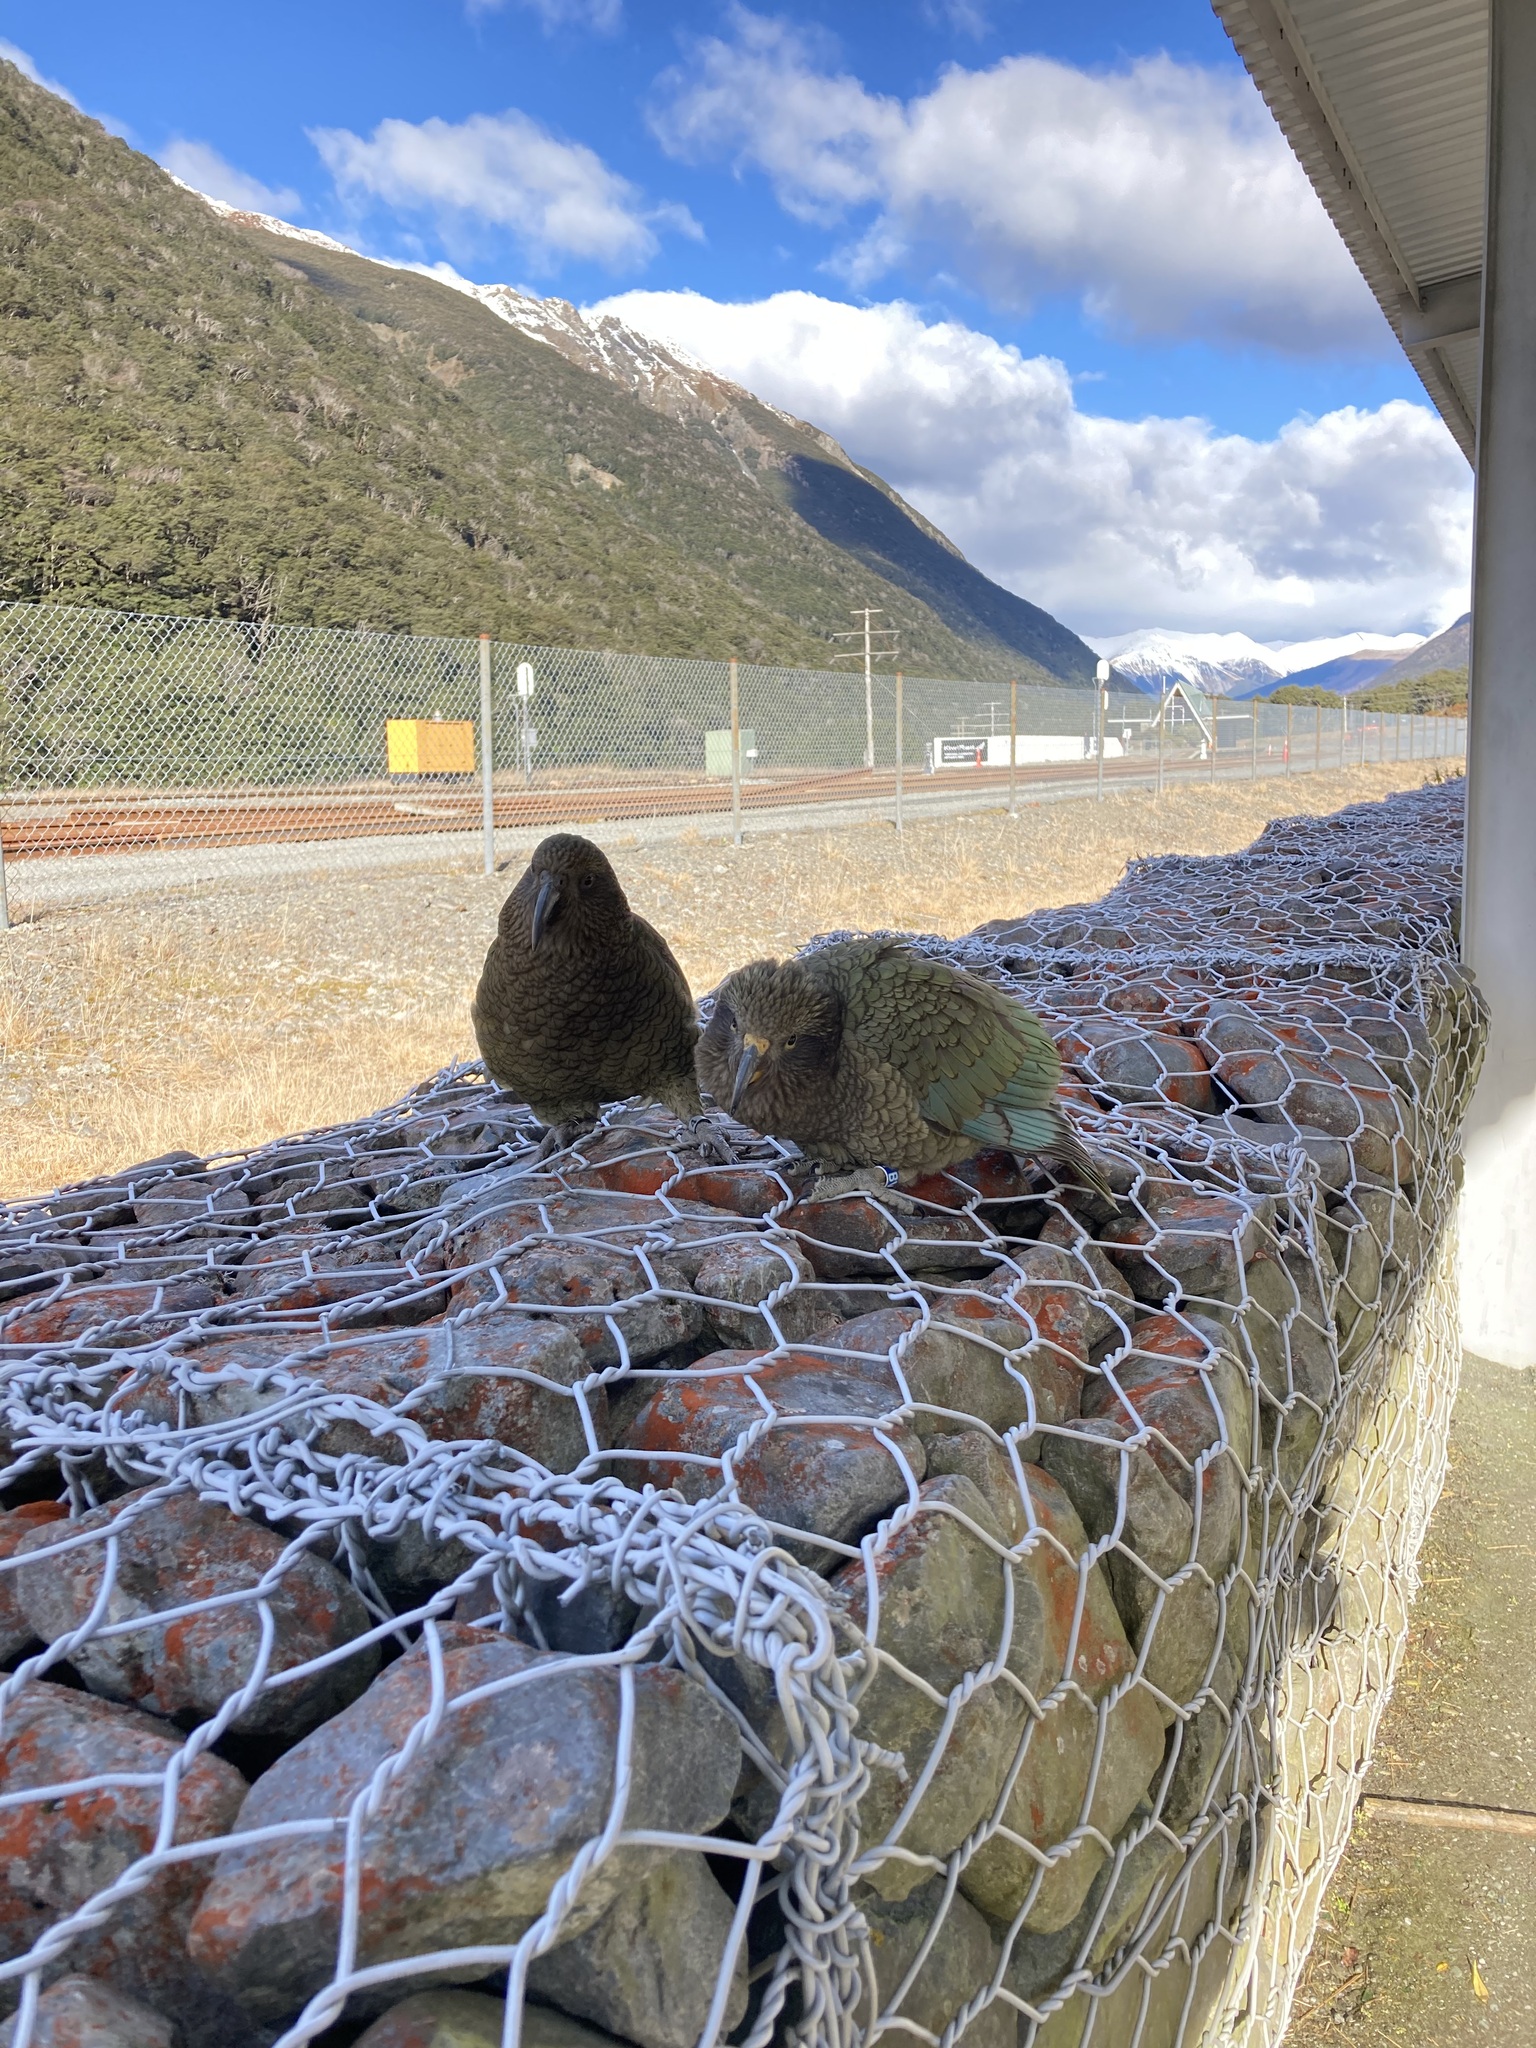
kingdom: Animalia
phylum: Chordata
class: Aves
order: Psittaciformes
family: Psittacidae
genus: Nestor
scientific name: Nestor notabilis
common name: Kea
